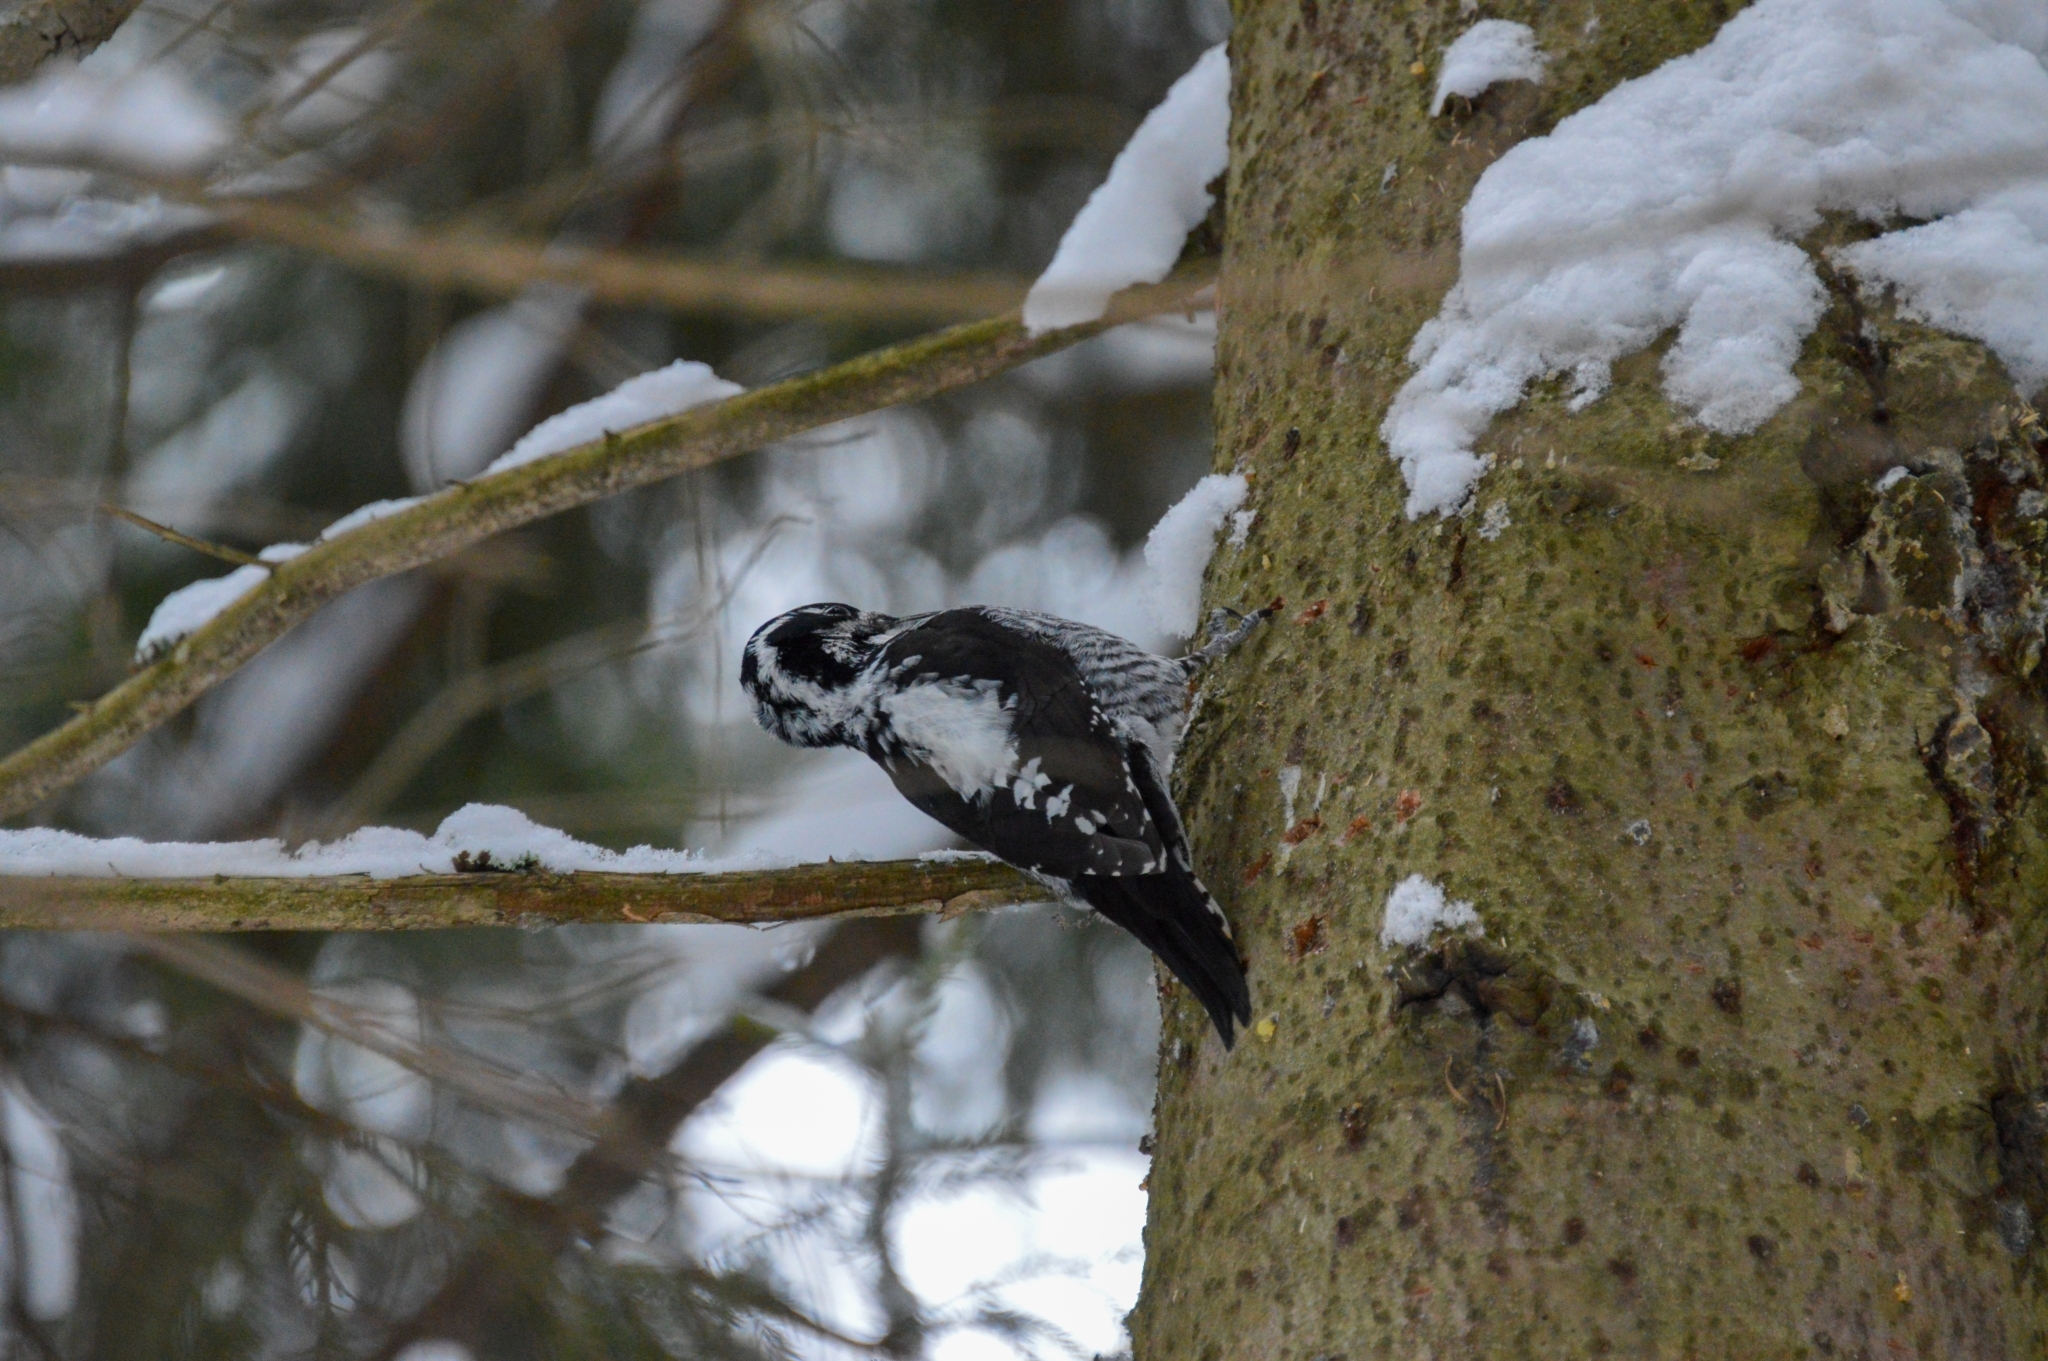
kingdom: Animalia
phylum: Chordata
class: Aves
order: Piciformes
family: Picidae
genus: Picoides
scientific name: Picoides tridactylus
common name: Eurasian three-toed woodpecker
